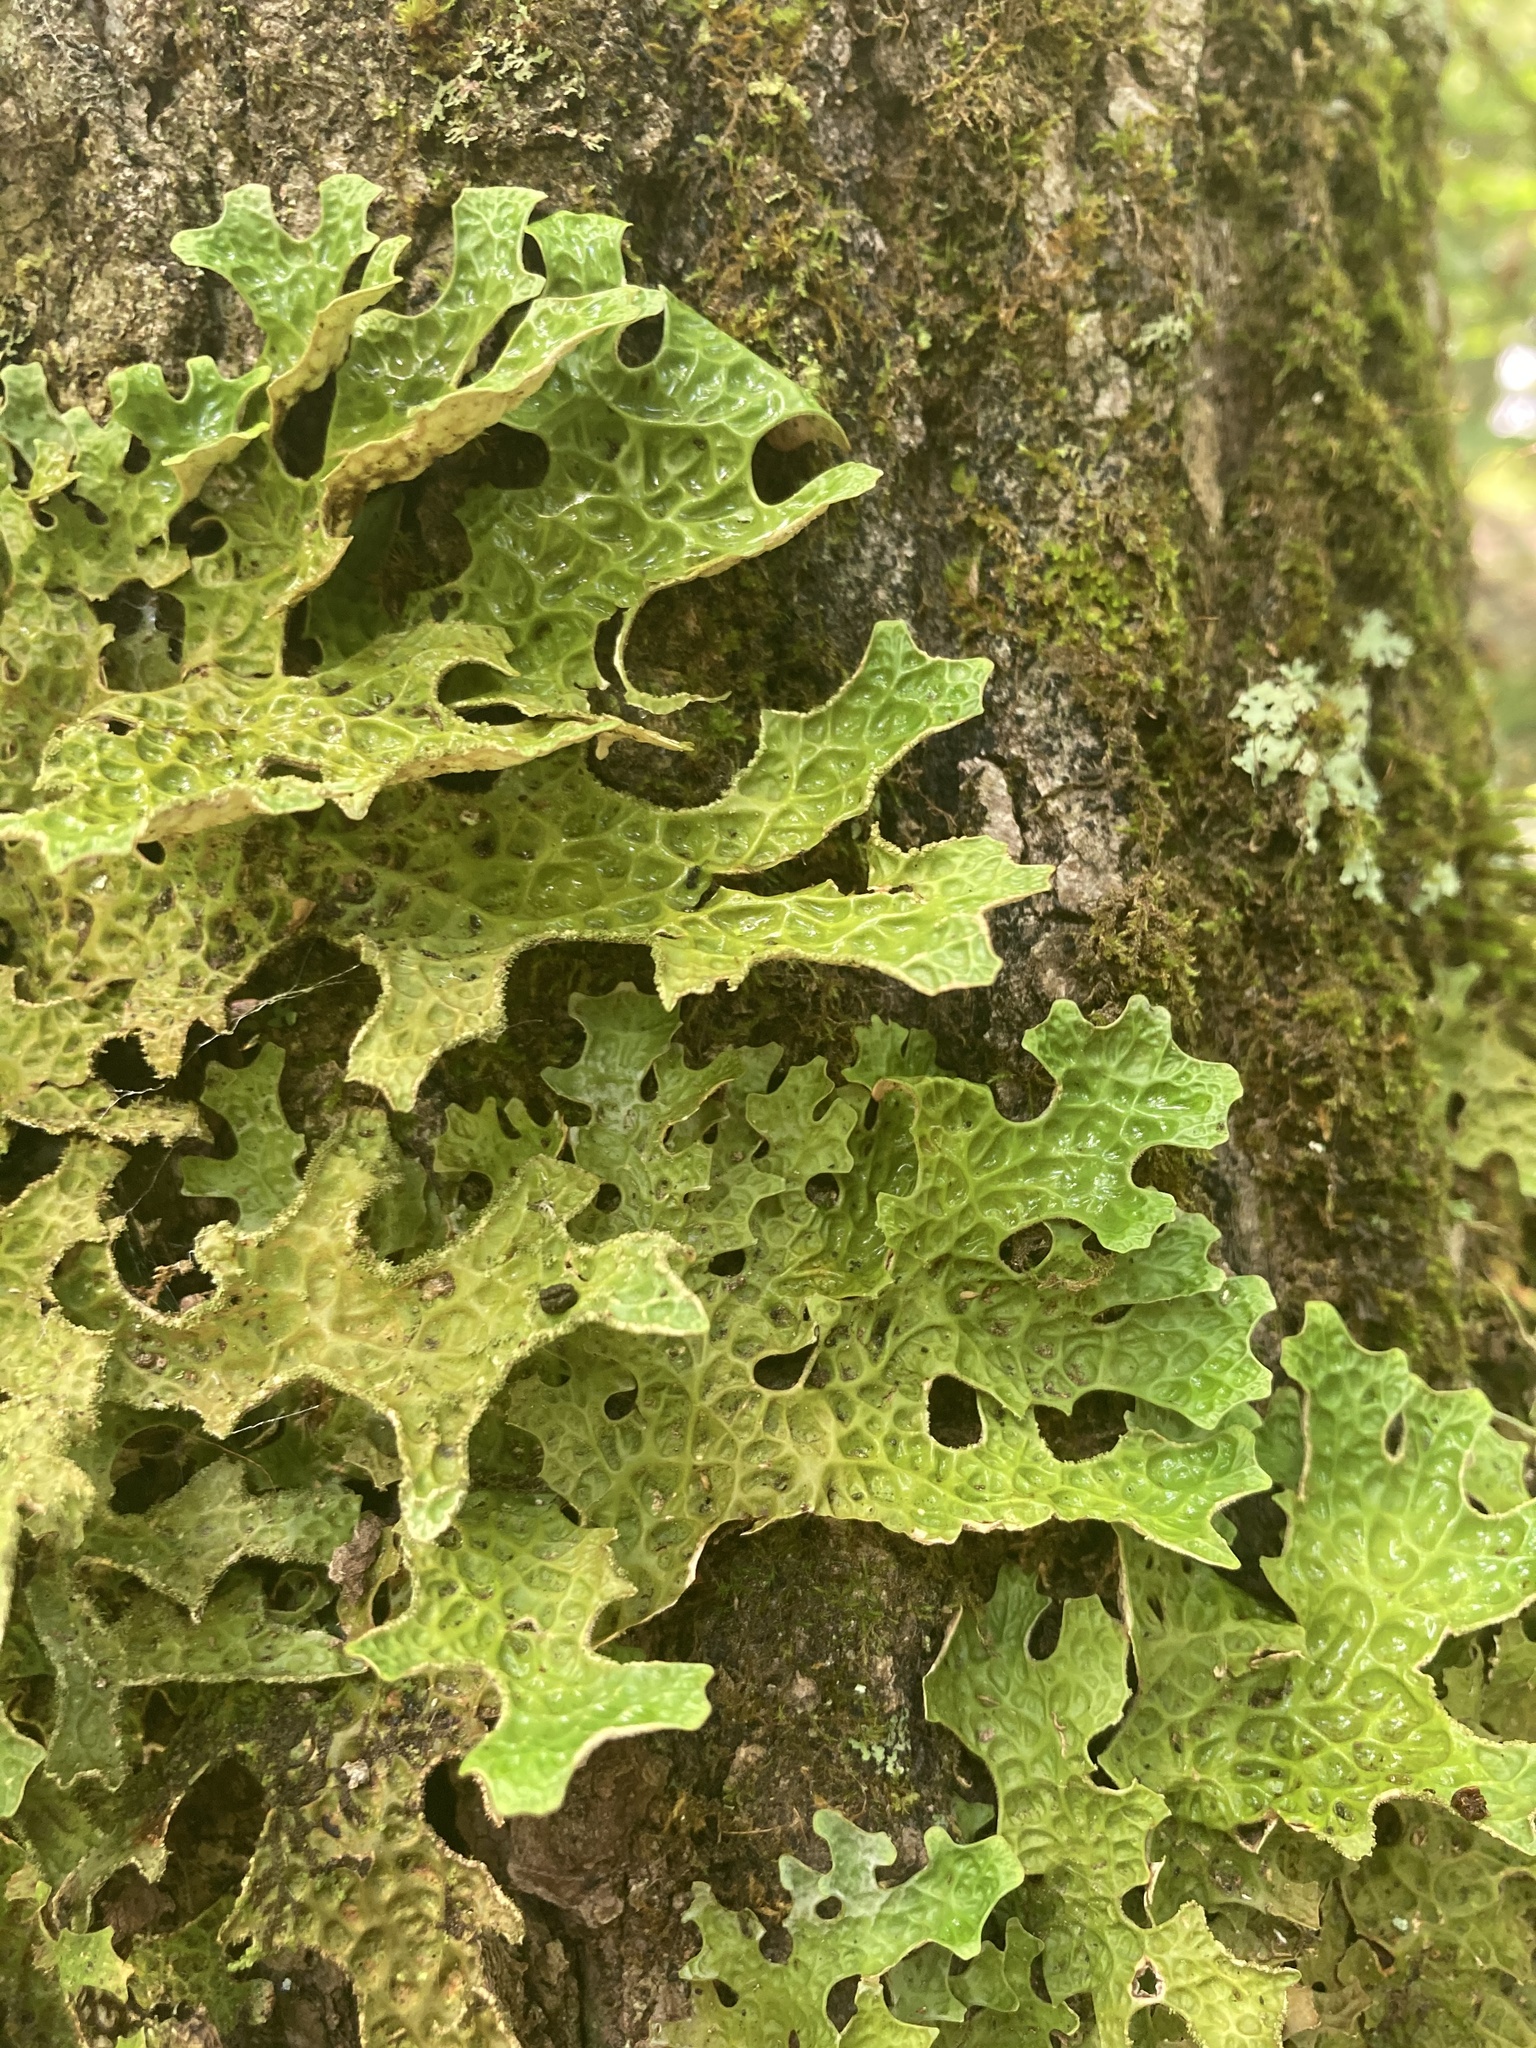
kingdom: Fungi
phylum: Ascomycota
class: Lecanoromycetes
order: Peltigerales
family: Lobariaceae
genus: Lobaria
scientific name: Lobaria pulmonaria
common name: Lungwort
